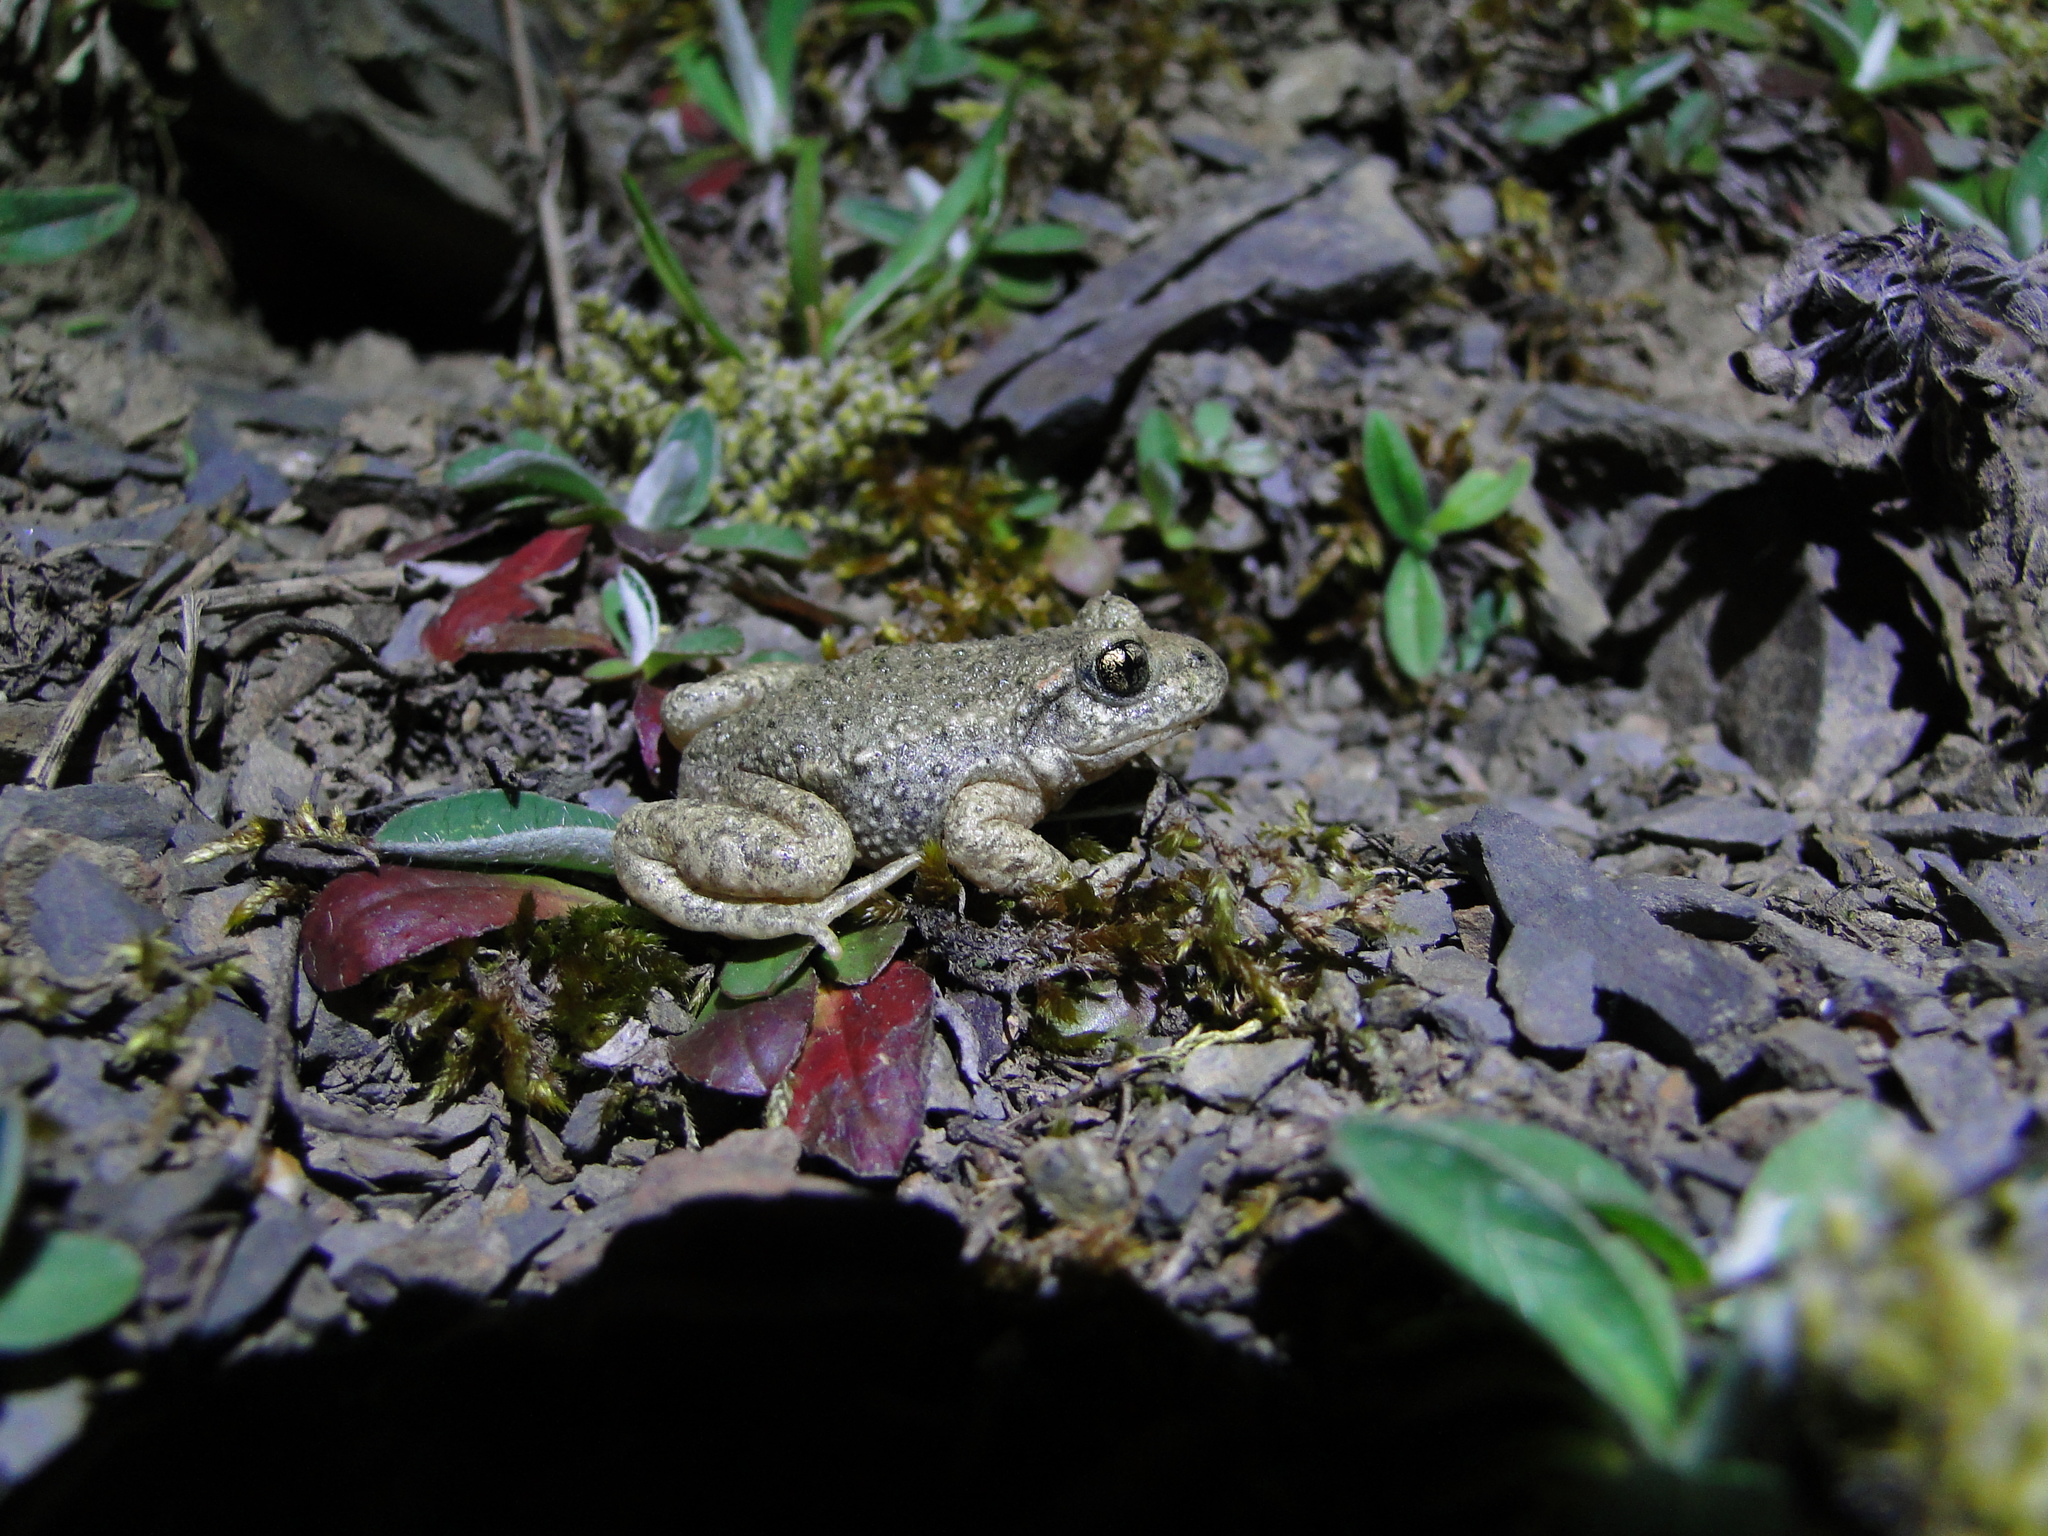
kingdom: Animalia
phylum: Chordata
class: Amphibia
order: Anura
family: Alytidae
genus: Alytes
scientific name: Alytes obstetricans
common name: Midwife toad
